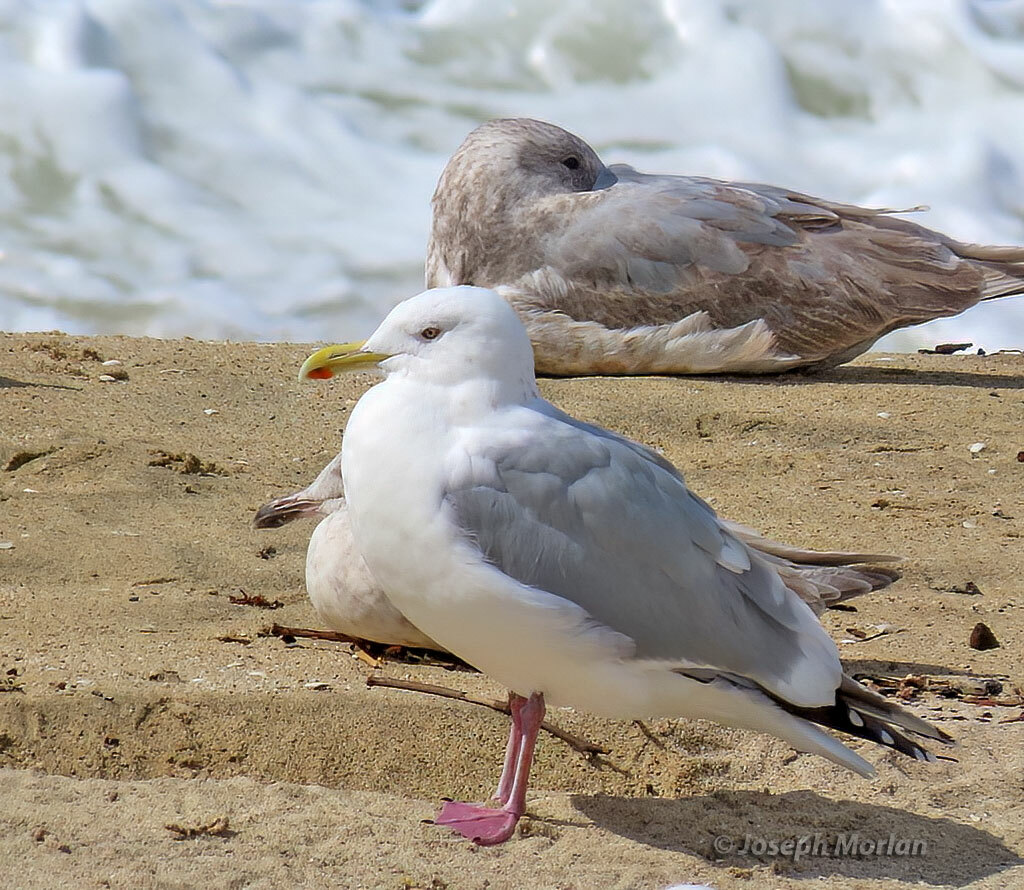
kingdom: Animalia
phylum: Chordata
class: Aves
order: Charadriiformes
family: Laridae
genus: Larus
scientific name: Larus argentatus
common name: Herring gull
